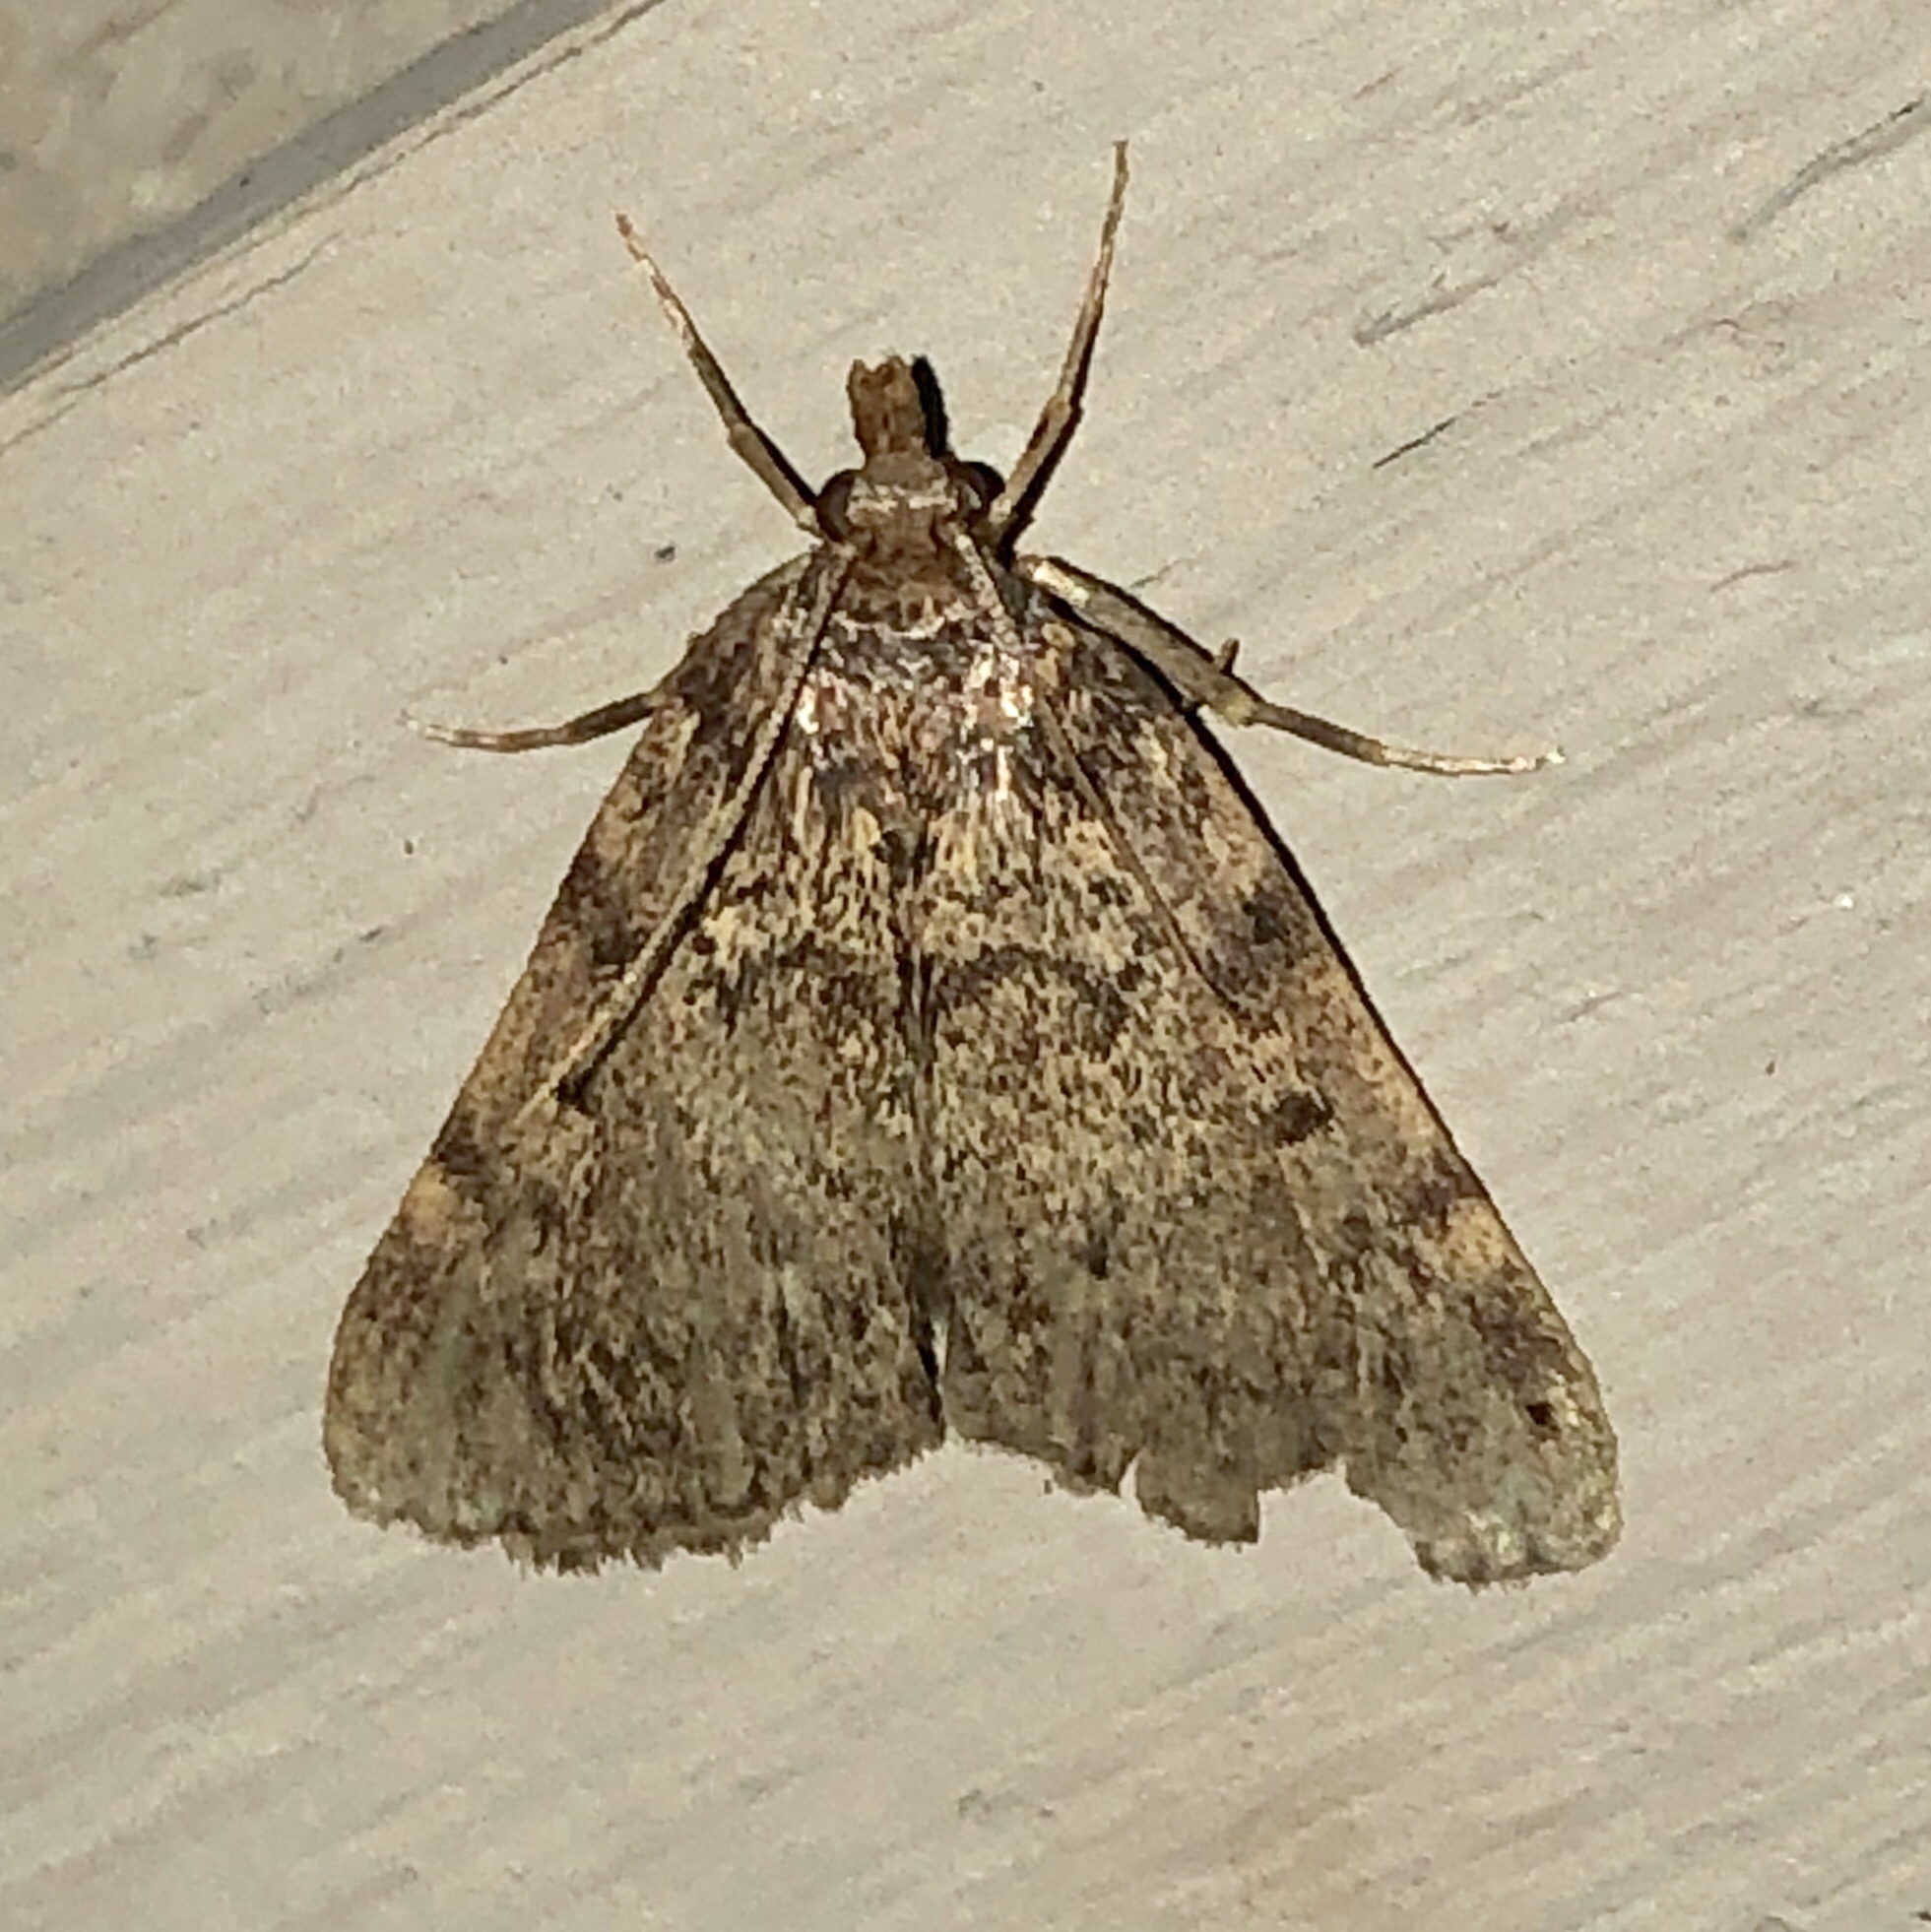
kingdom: Animalia
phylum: Arthropoda
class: Insecta
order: Lepidoptera
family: Pyralidae
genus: Aglossa
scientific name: Aglossa pinguinalis
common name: Large tabby
